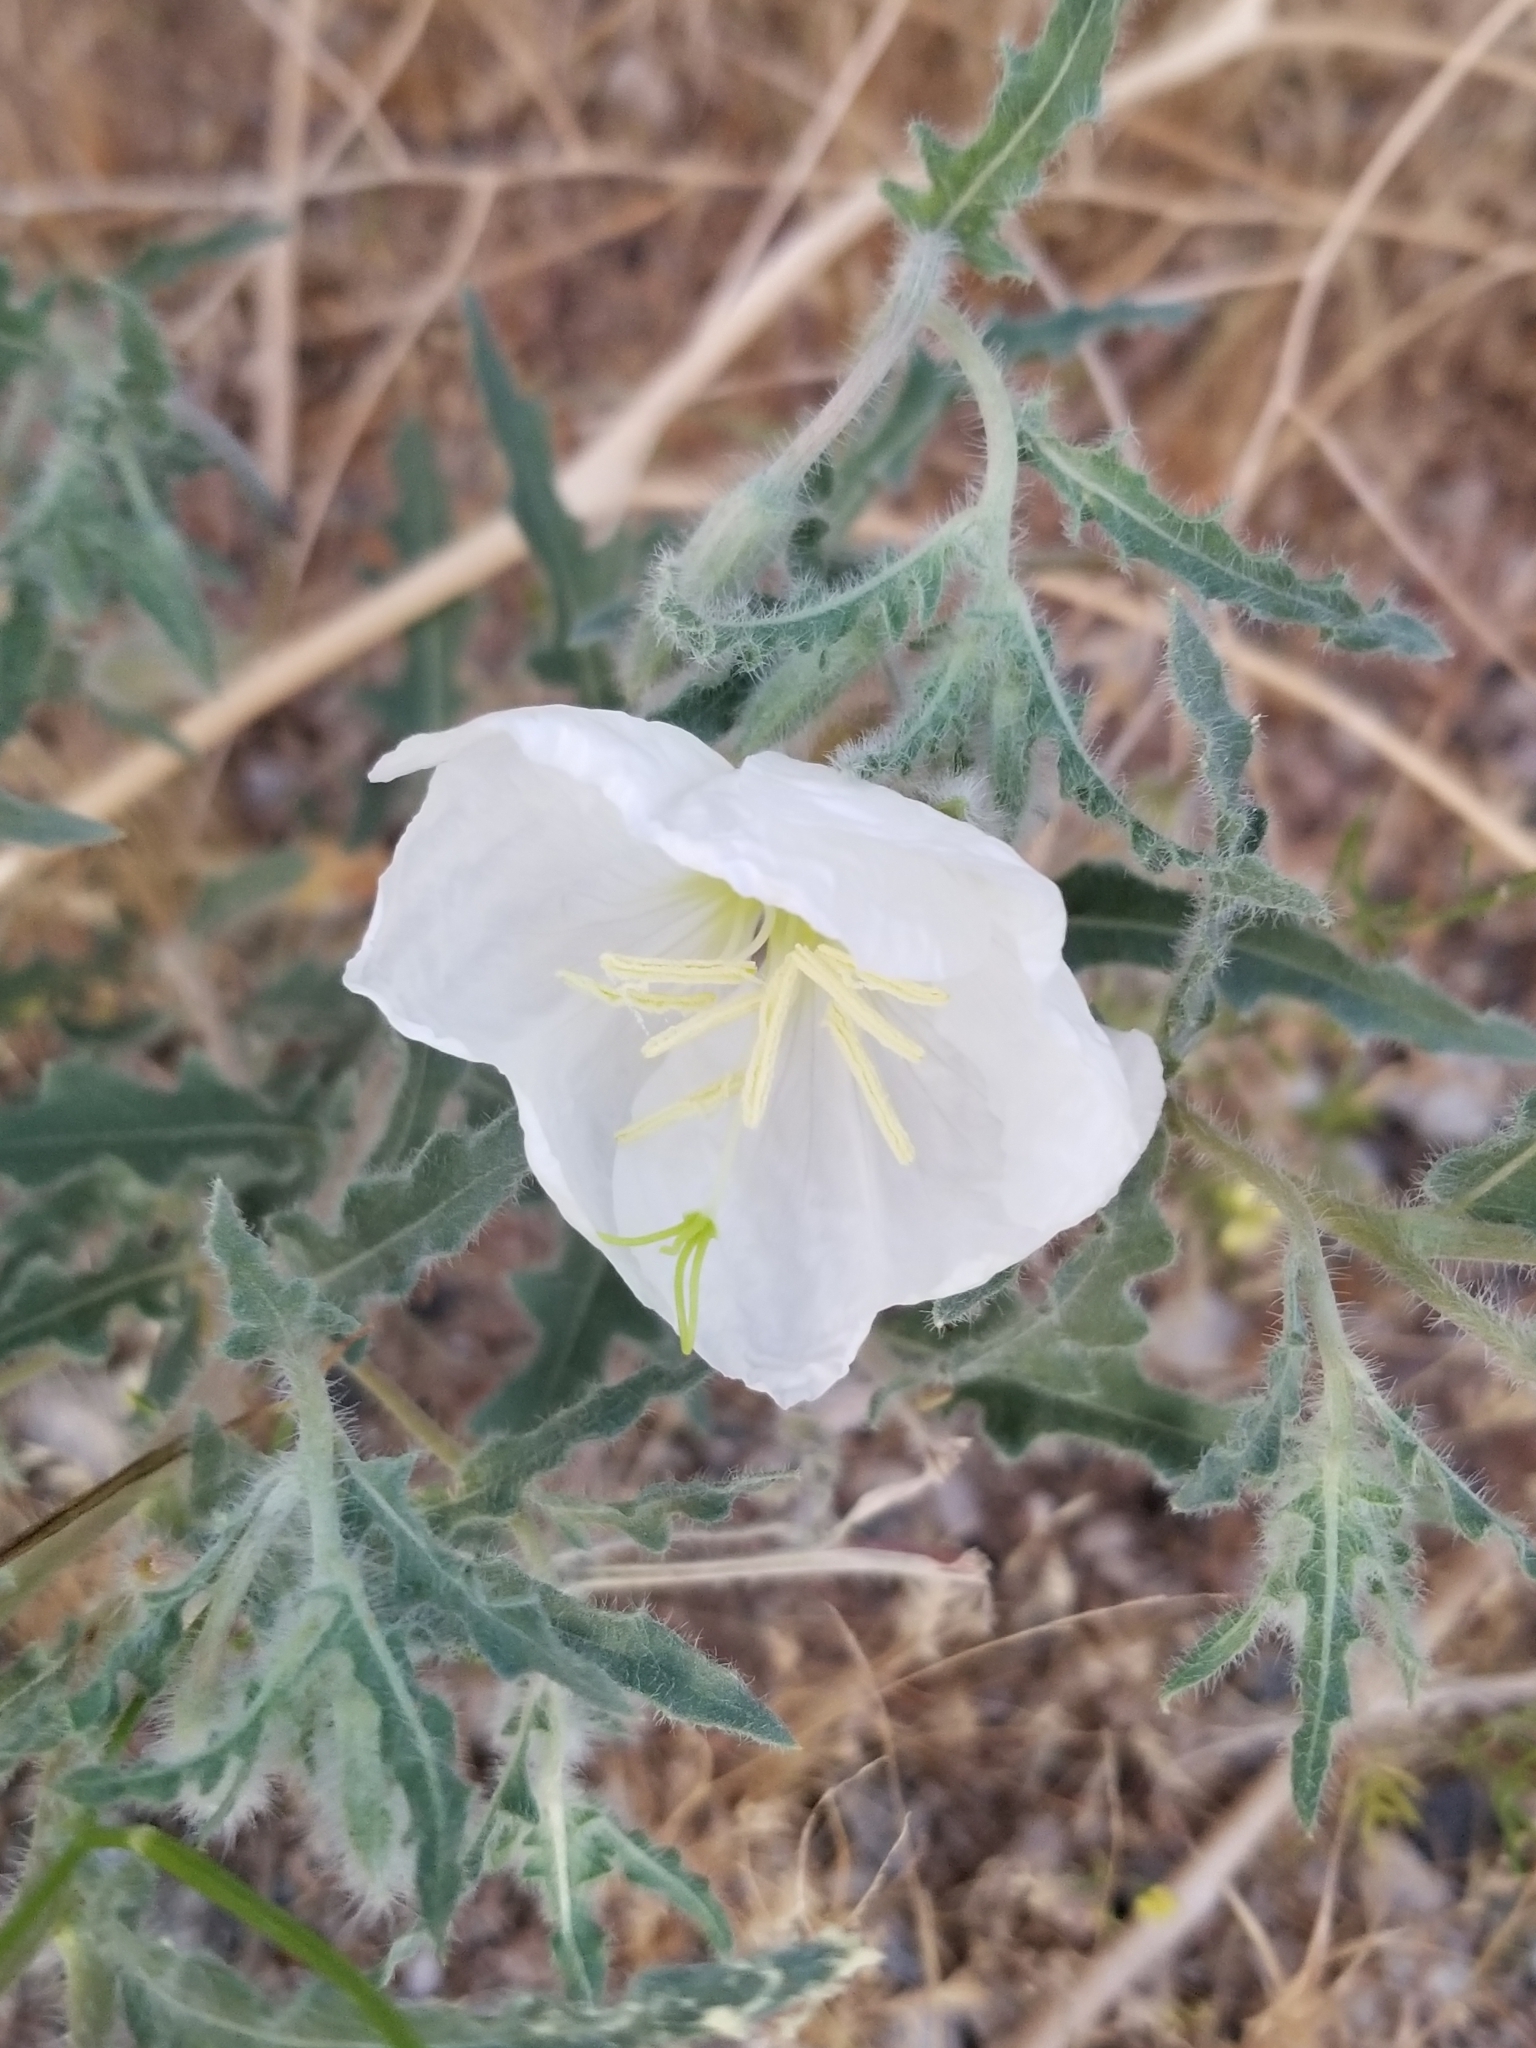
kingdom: Plantae
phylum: Tracheophyta
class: Magnoliopsida
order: Myrtales
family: Onagraceae
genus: Oenothera
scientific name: Oenothera californica
